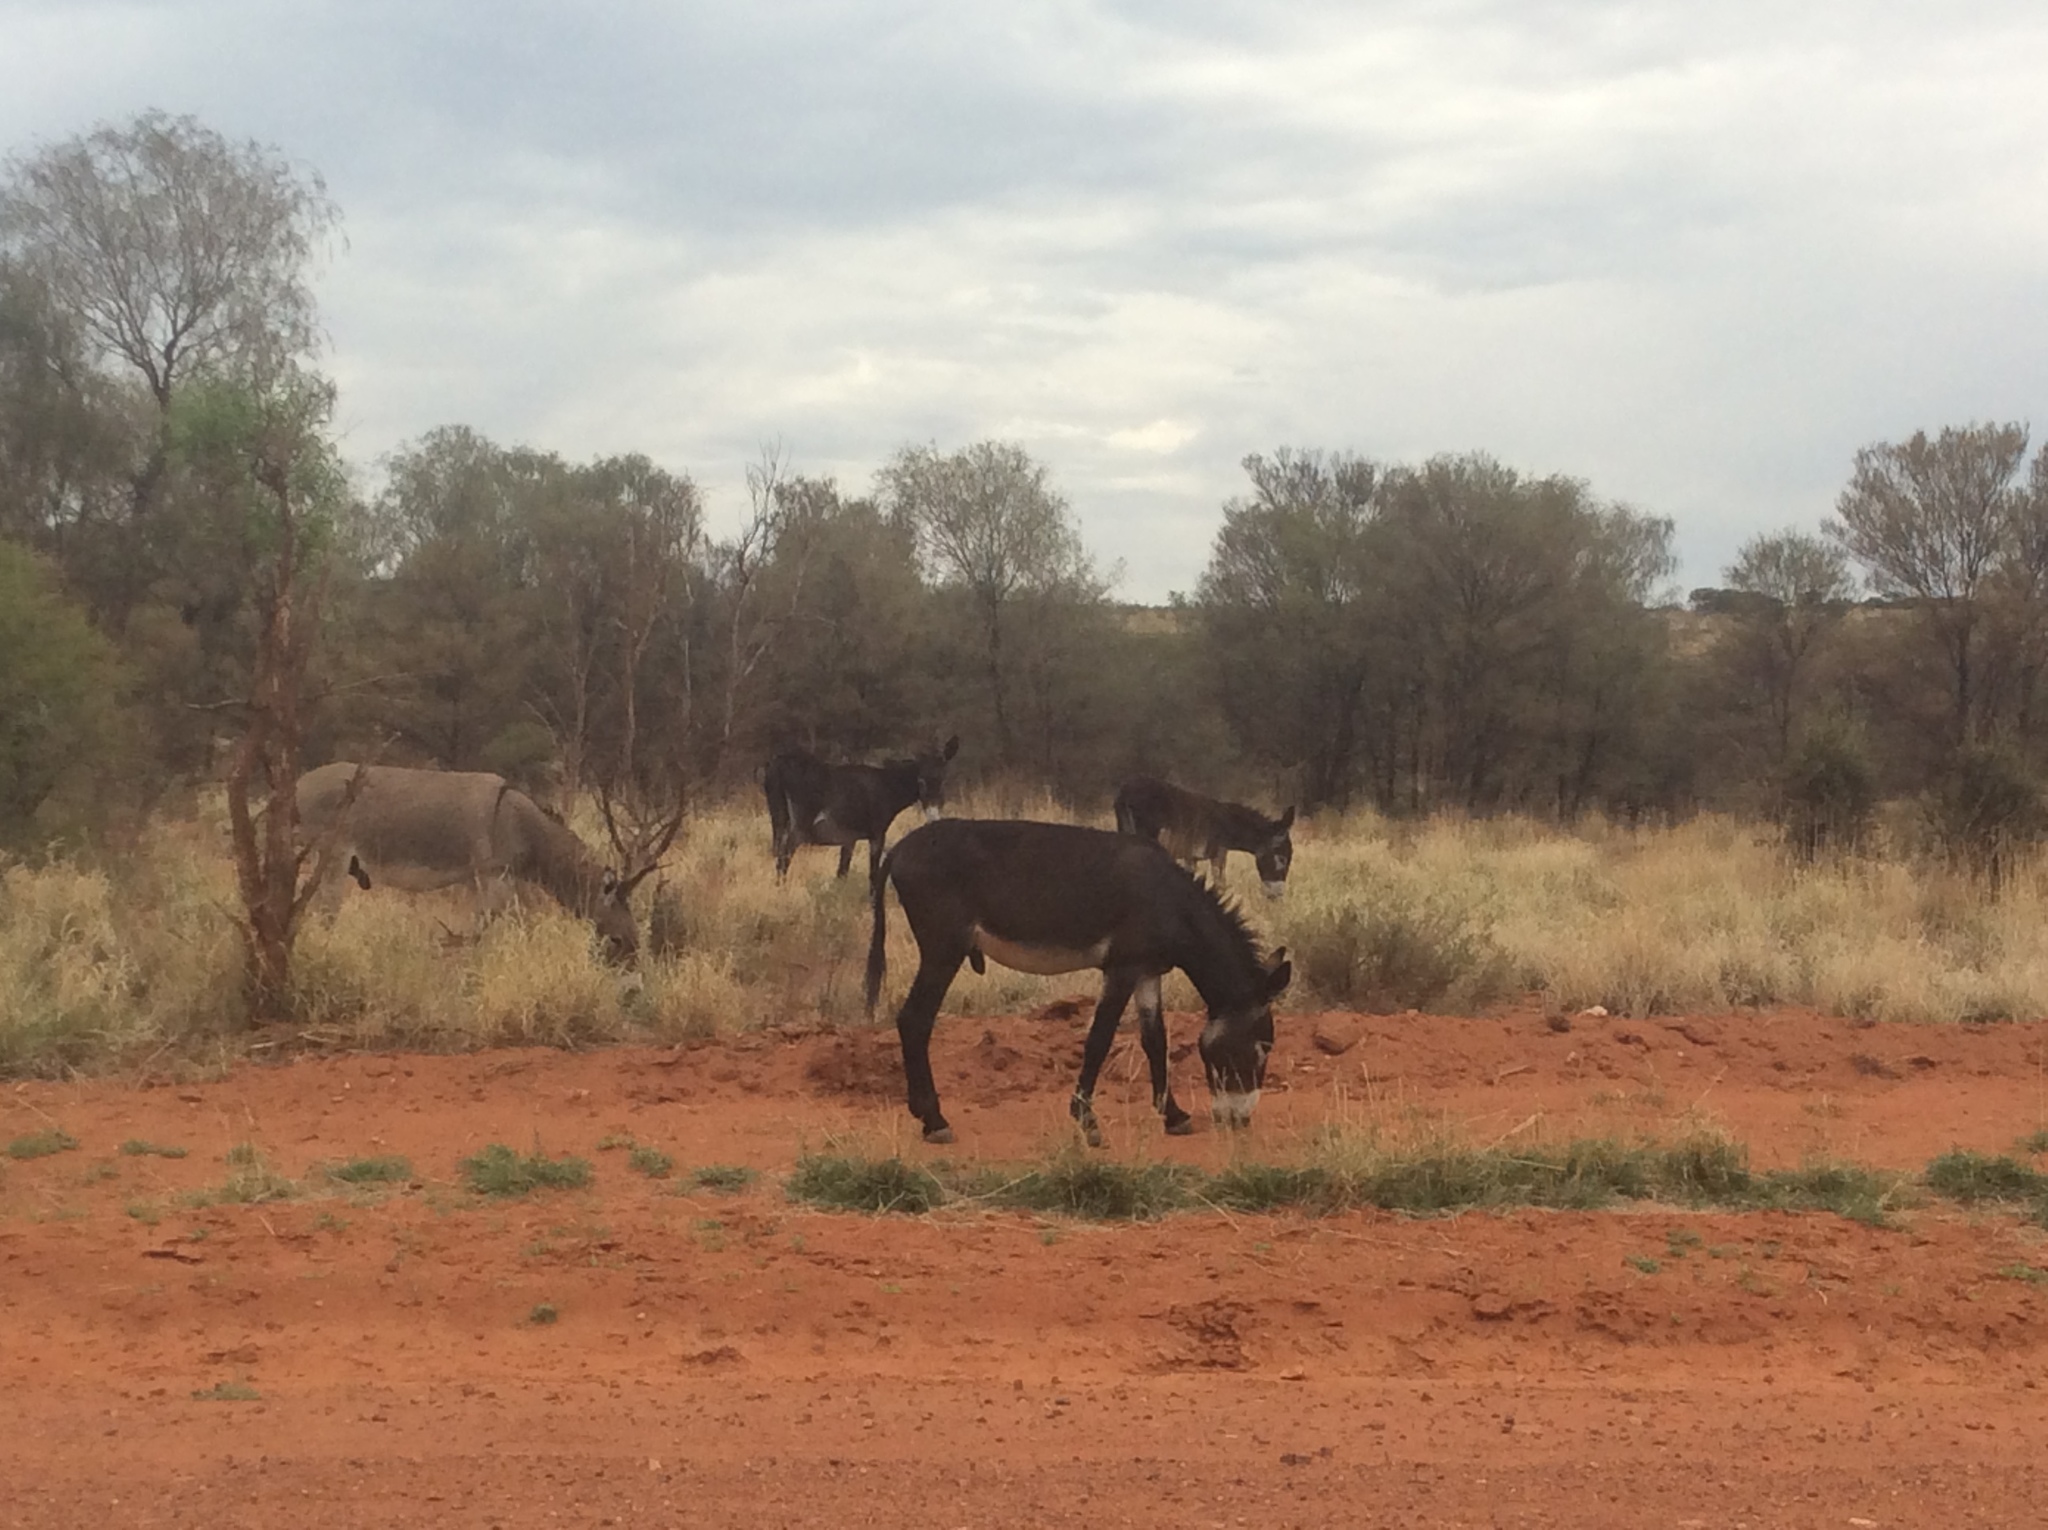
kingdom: Animalia
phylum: Chordata
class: Mammalia
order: Perissodactyla
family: Equidae
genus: Equus
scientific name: Equus asinus
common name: Ass
